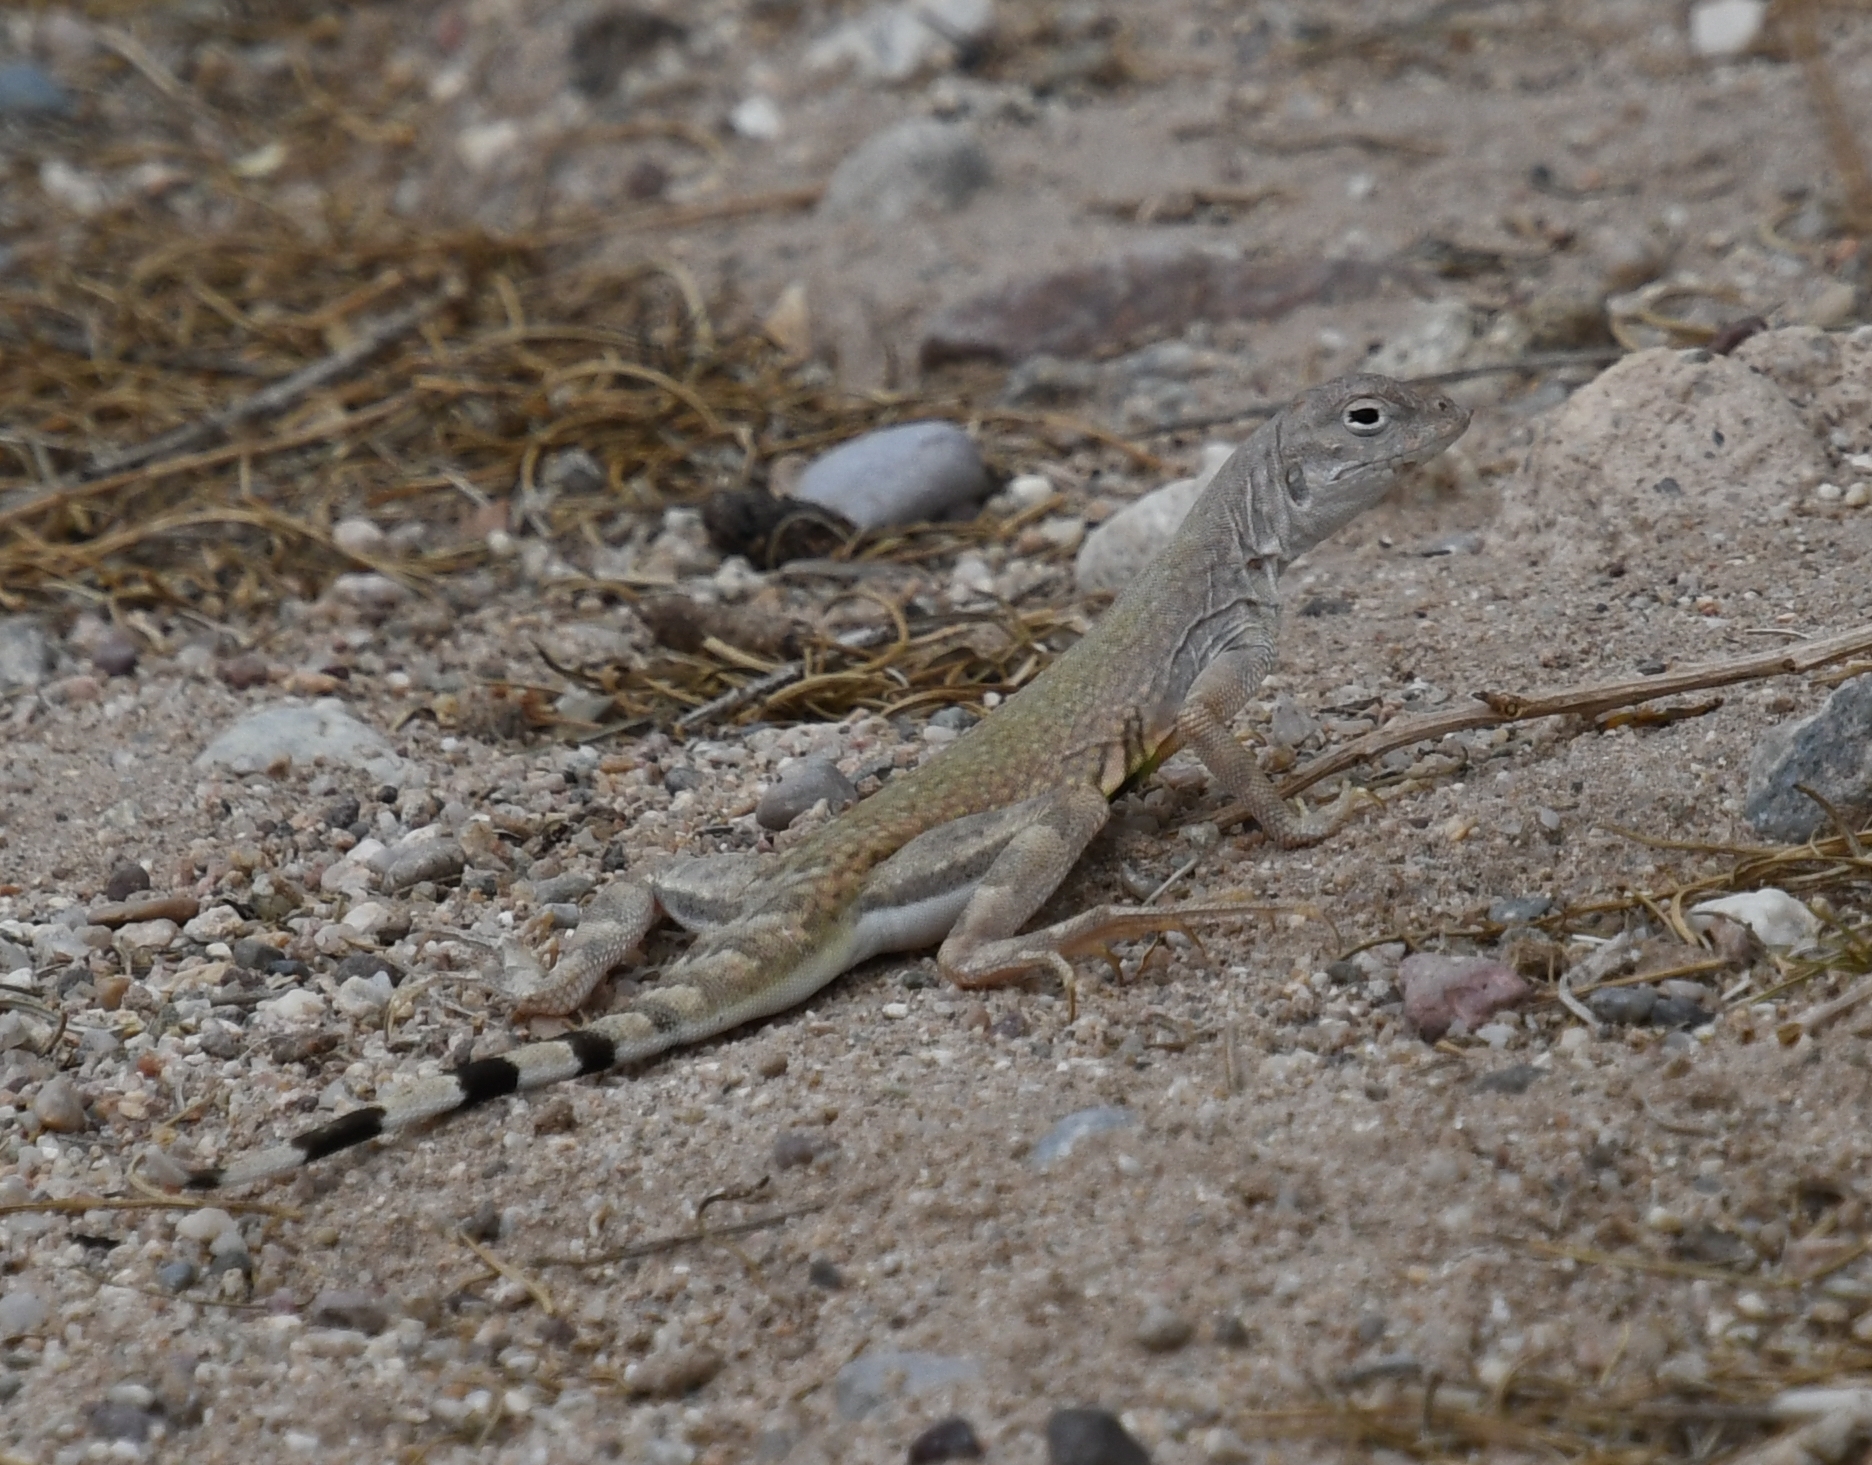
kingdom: Animalia
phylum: Chordata
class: Squamata
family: Phrynosomatidae
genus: Callisaurus
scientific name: Callisaurus draconoides
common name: Zebra-tailed lizard
